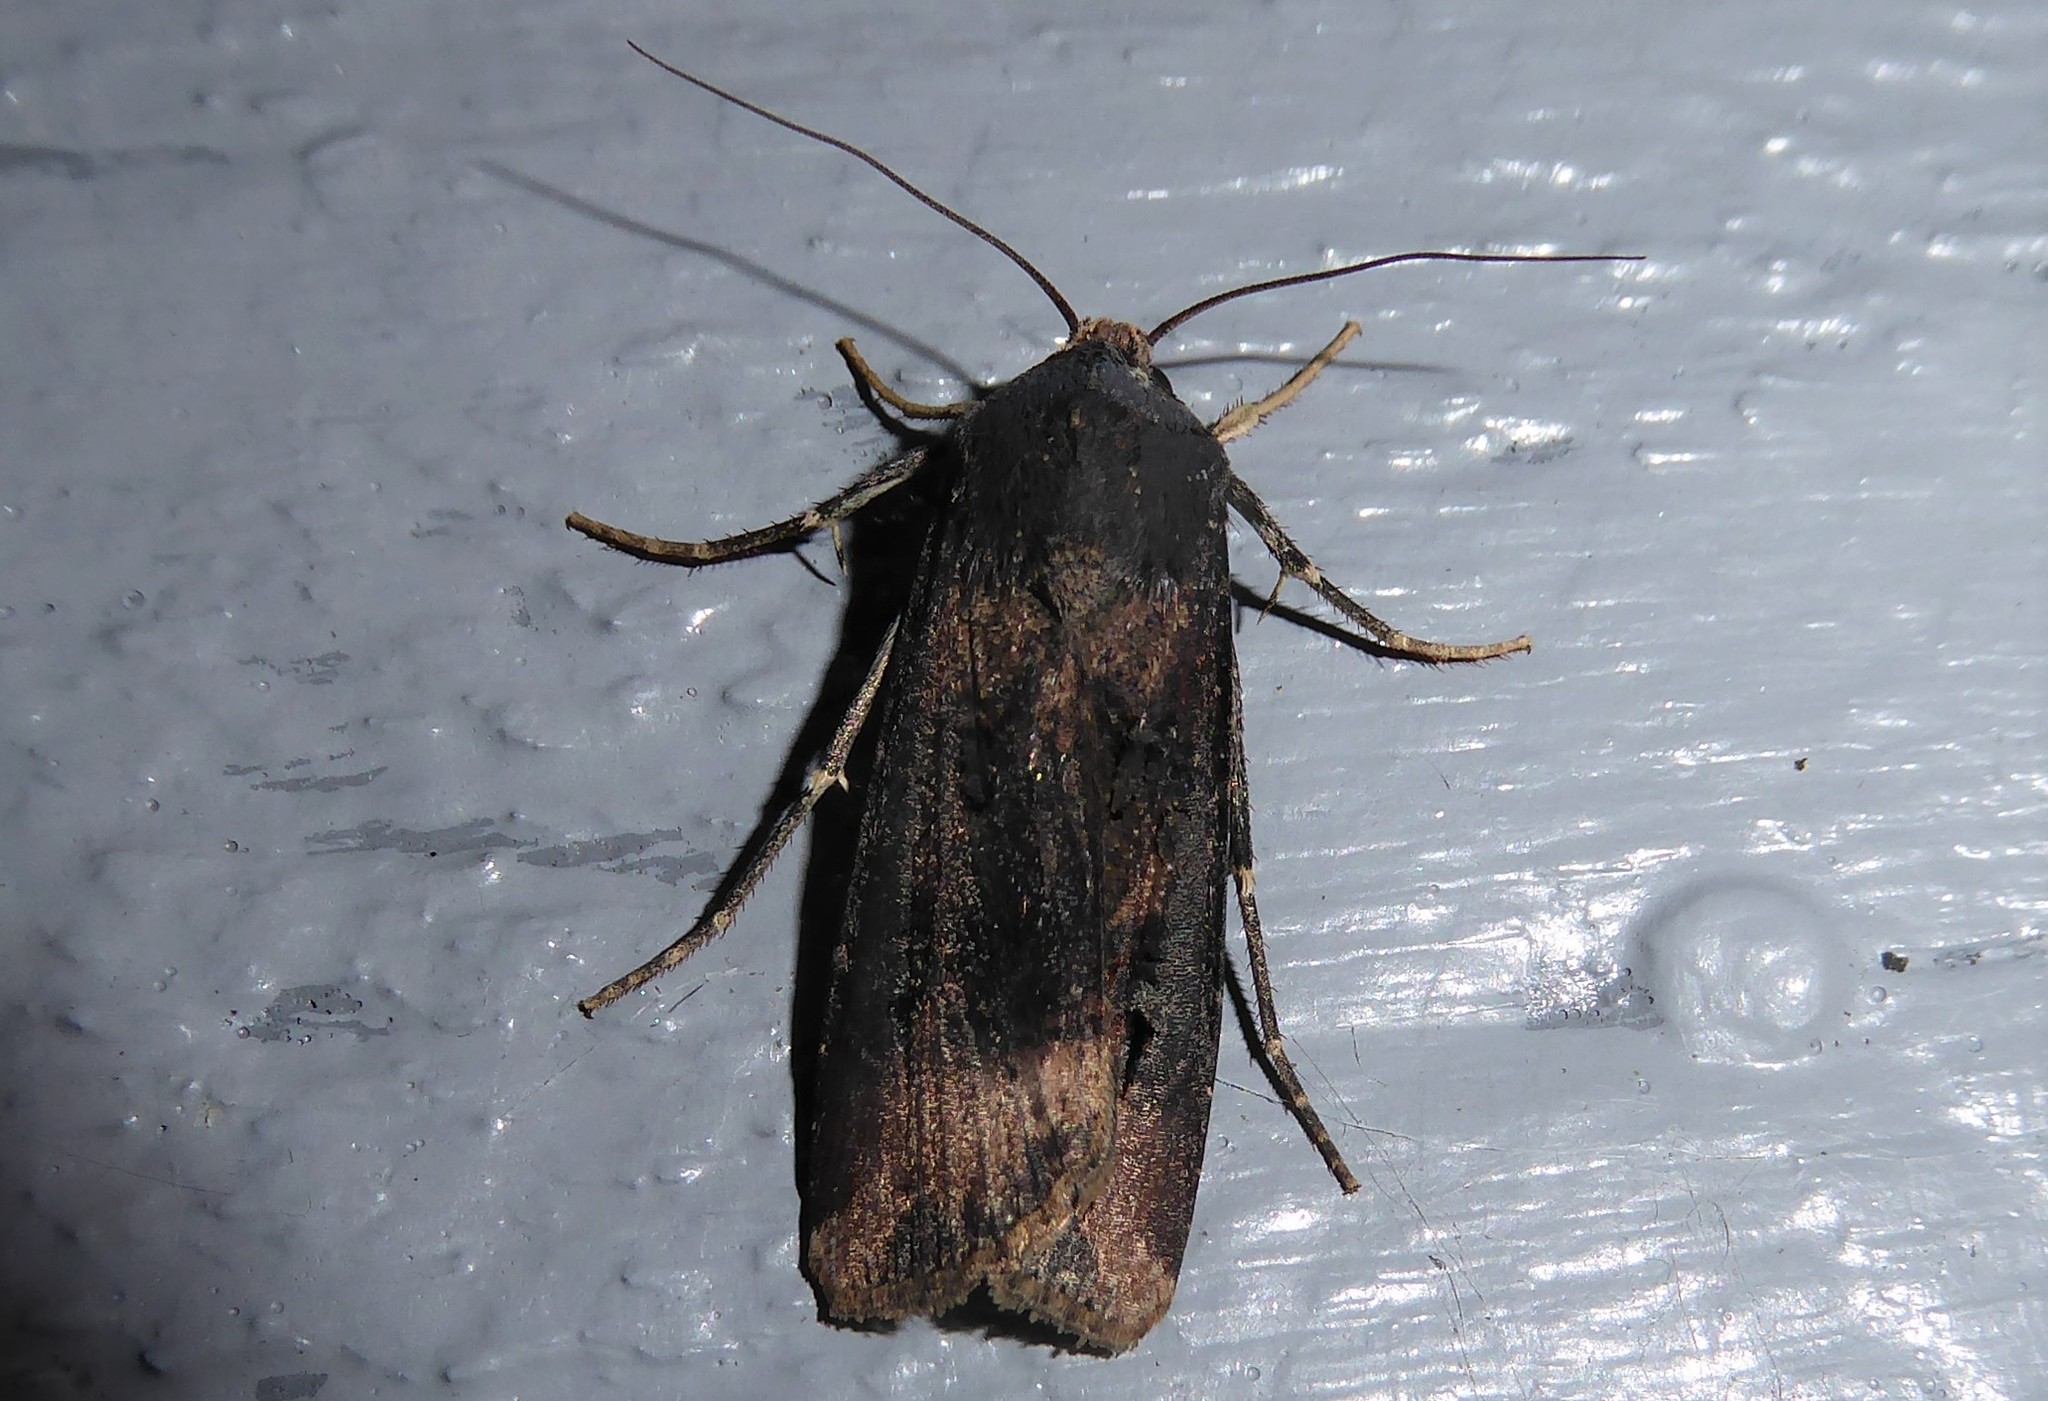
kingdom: Animalia
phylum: Arthropoda
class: Insecta
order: Lepidoptera
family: Noctuidae
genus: Agrotis
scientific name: Agrotis ipsilon
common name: Dark sword-grass
